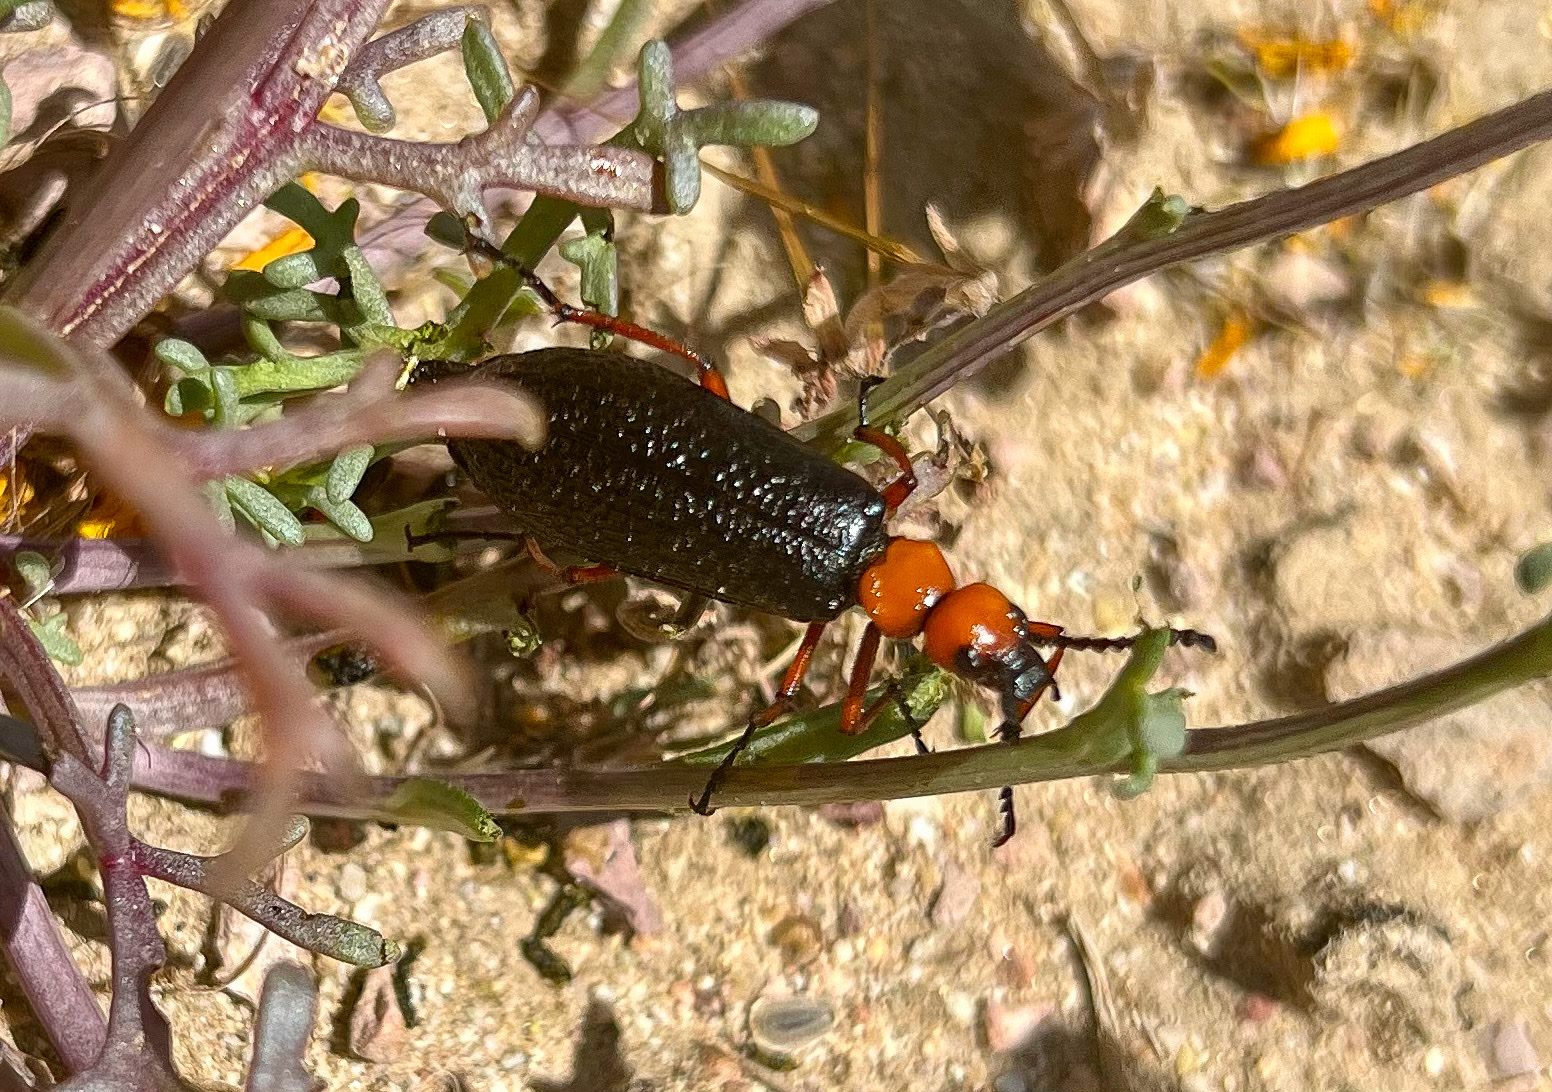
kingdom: Animalia
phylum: Arthropoda
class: Insecta
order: Coleoptera
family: Meloidae
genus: Lytta
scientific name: Lytta magister
